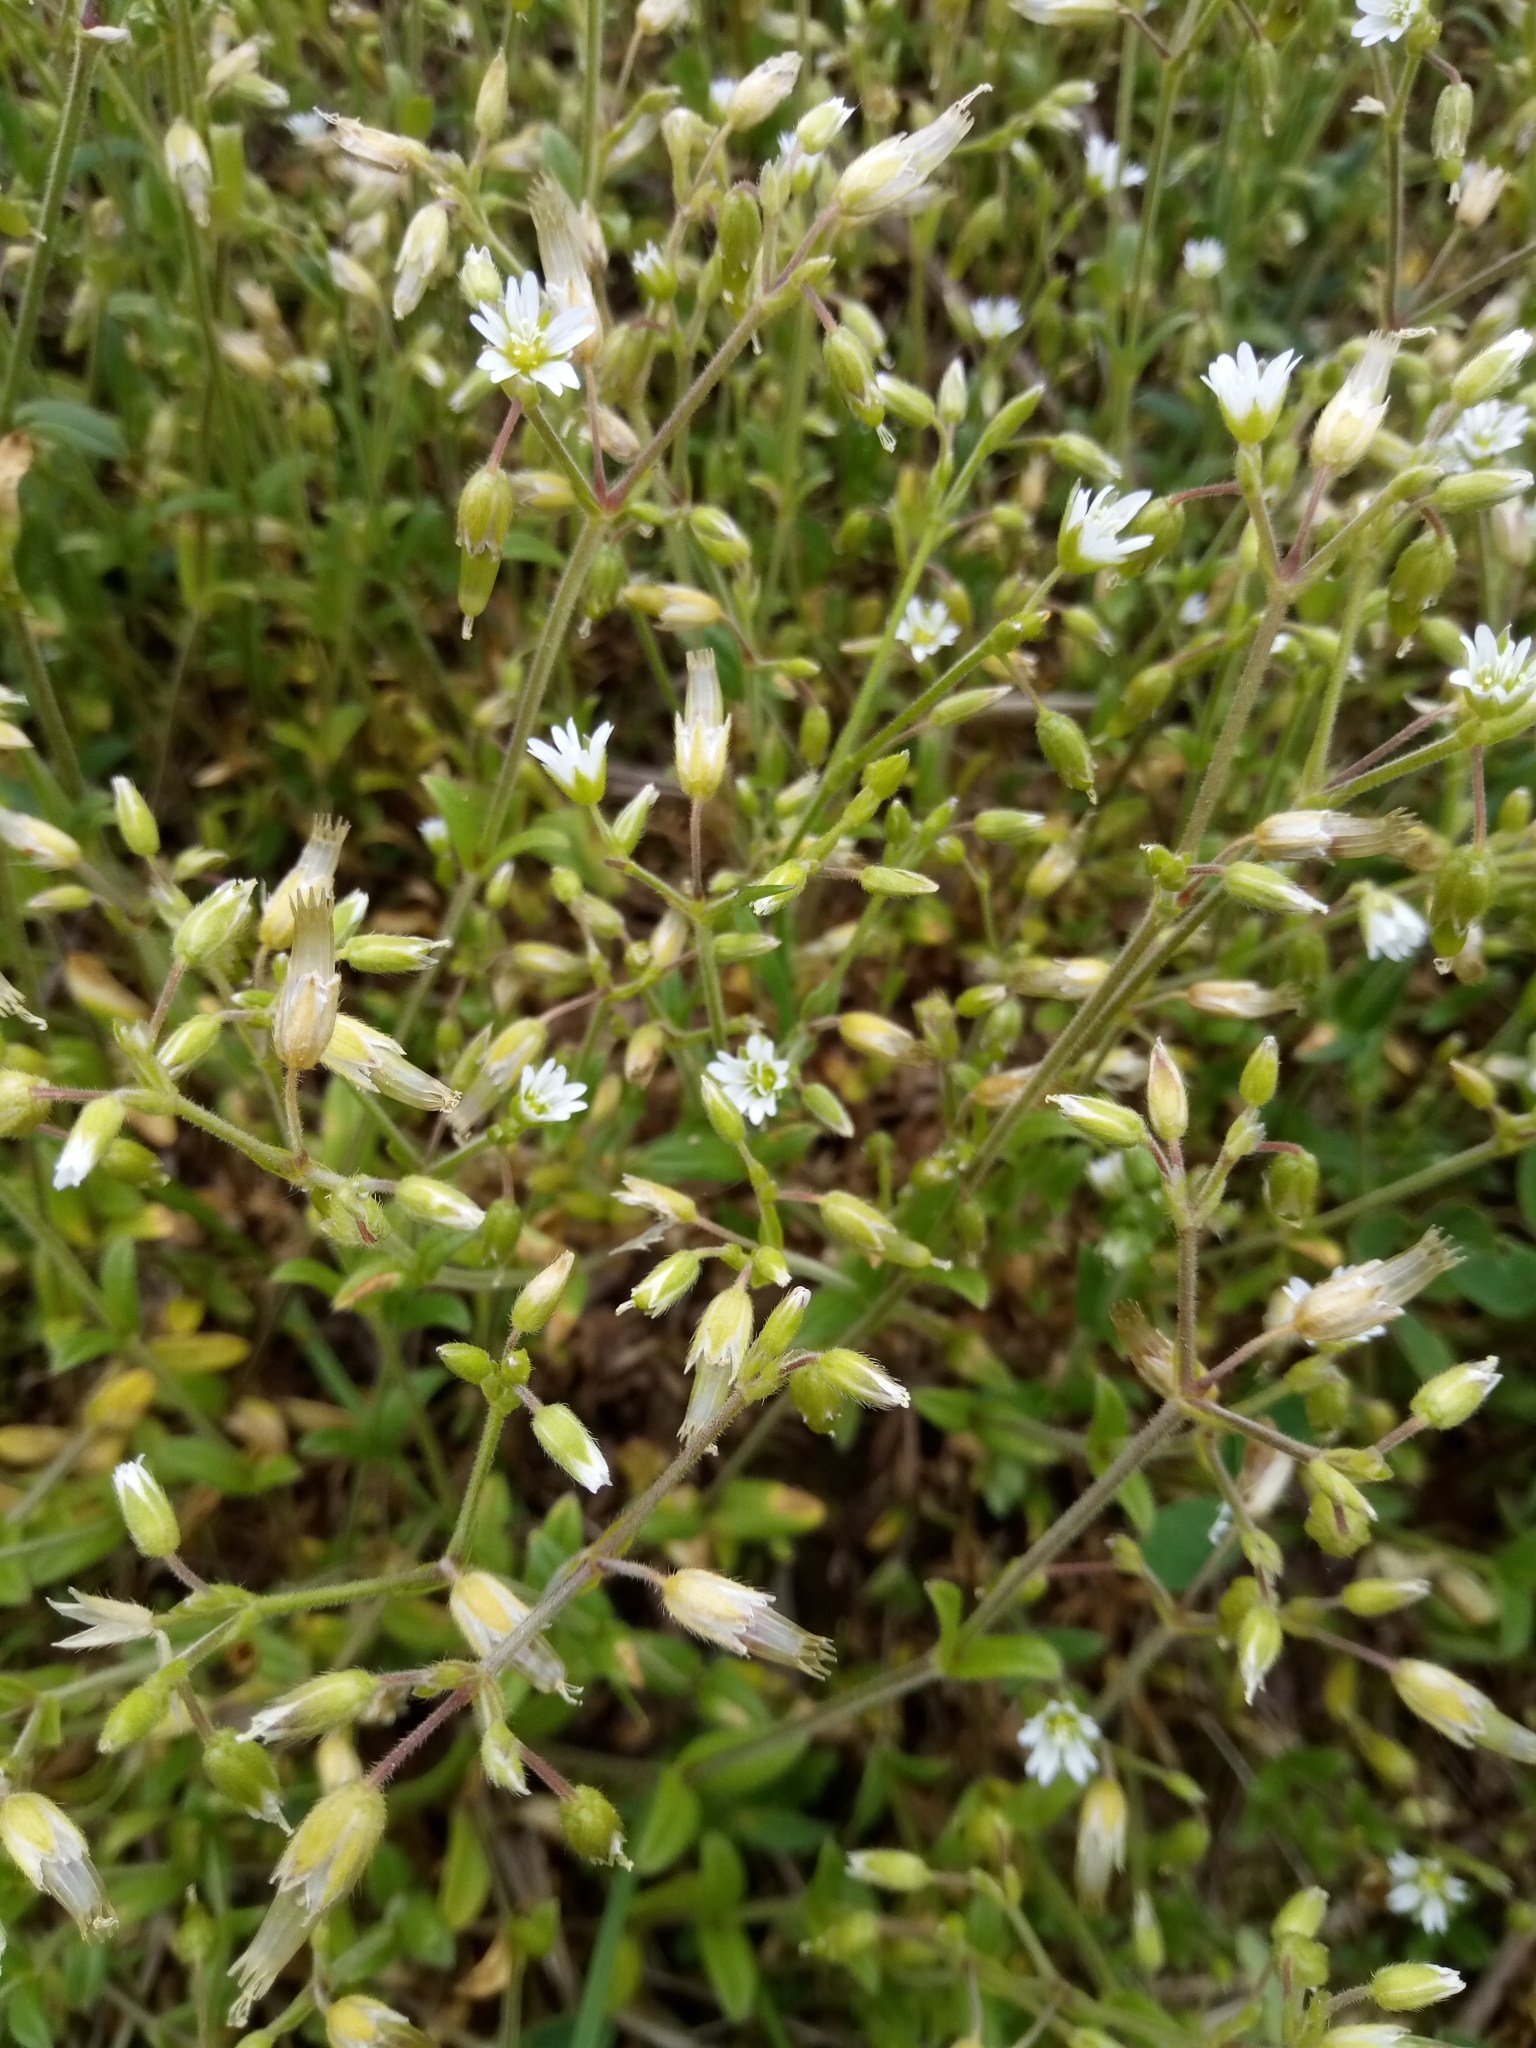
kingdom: Plantae
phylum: Tracheophyta
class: Magnoliopsida
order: Caryophyllales
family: Caryophyllaceae
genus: Cerastium
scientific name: Cerastium holosteoides
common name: Big chickweed
